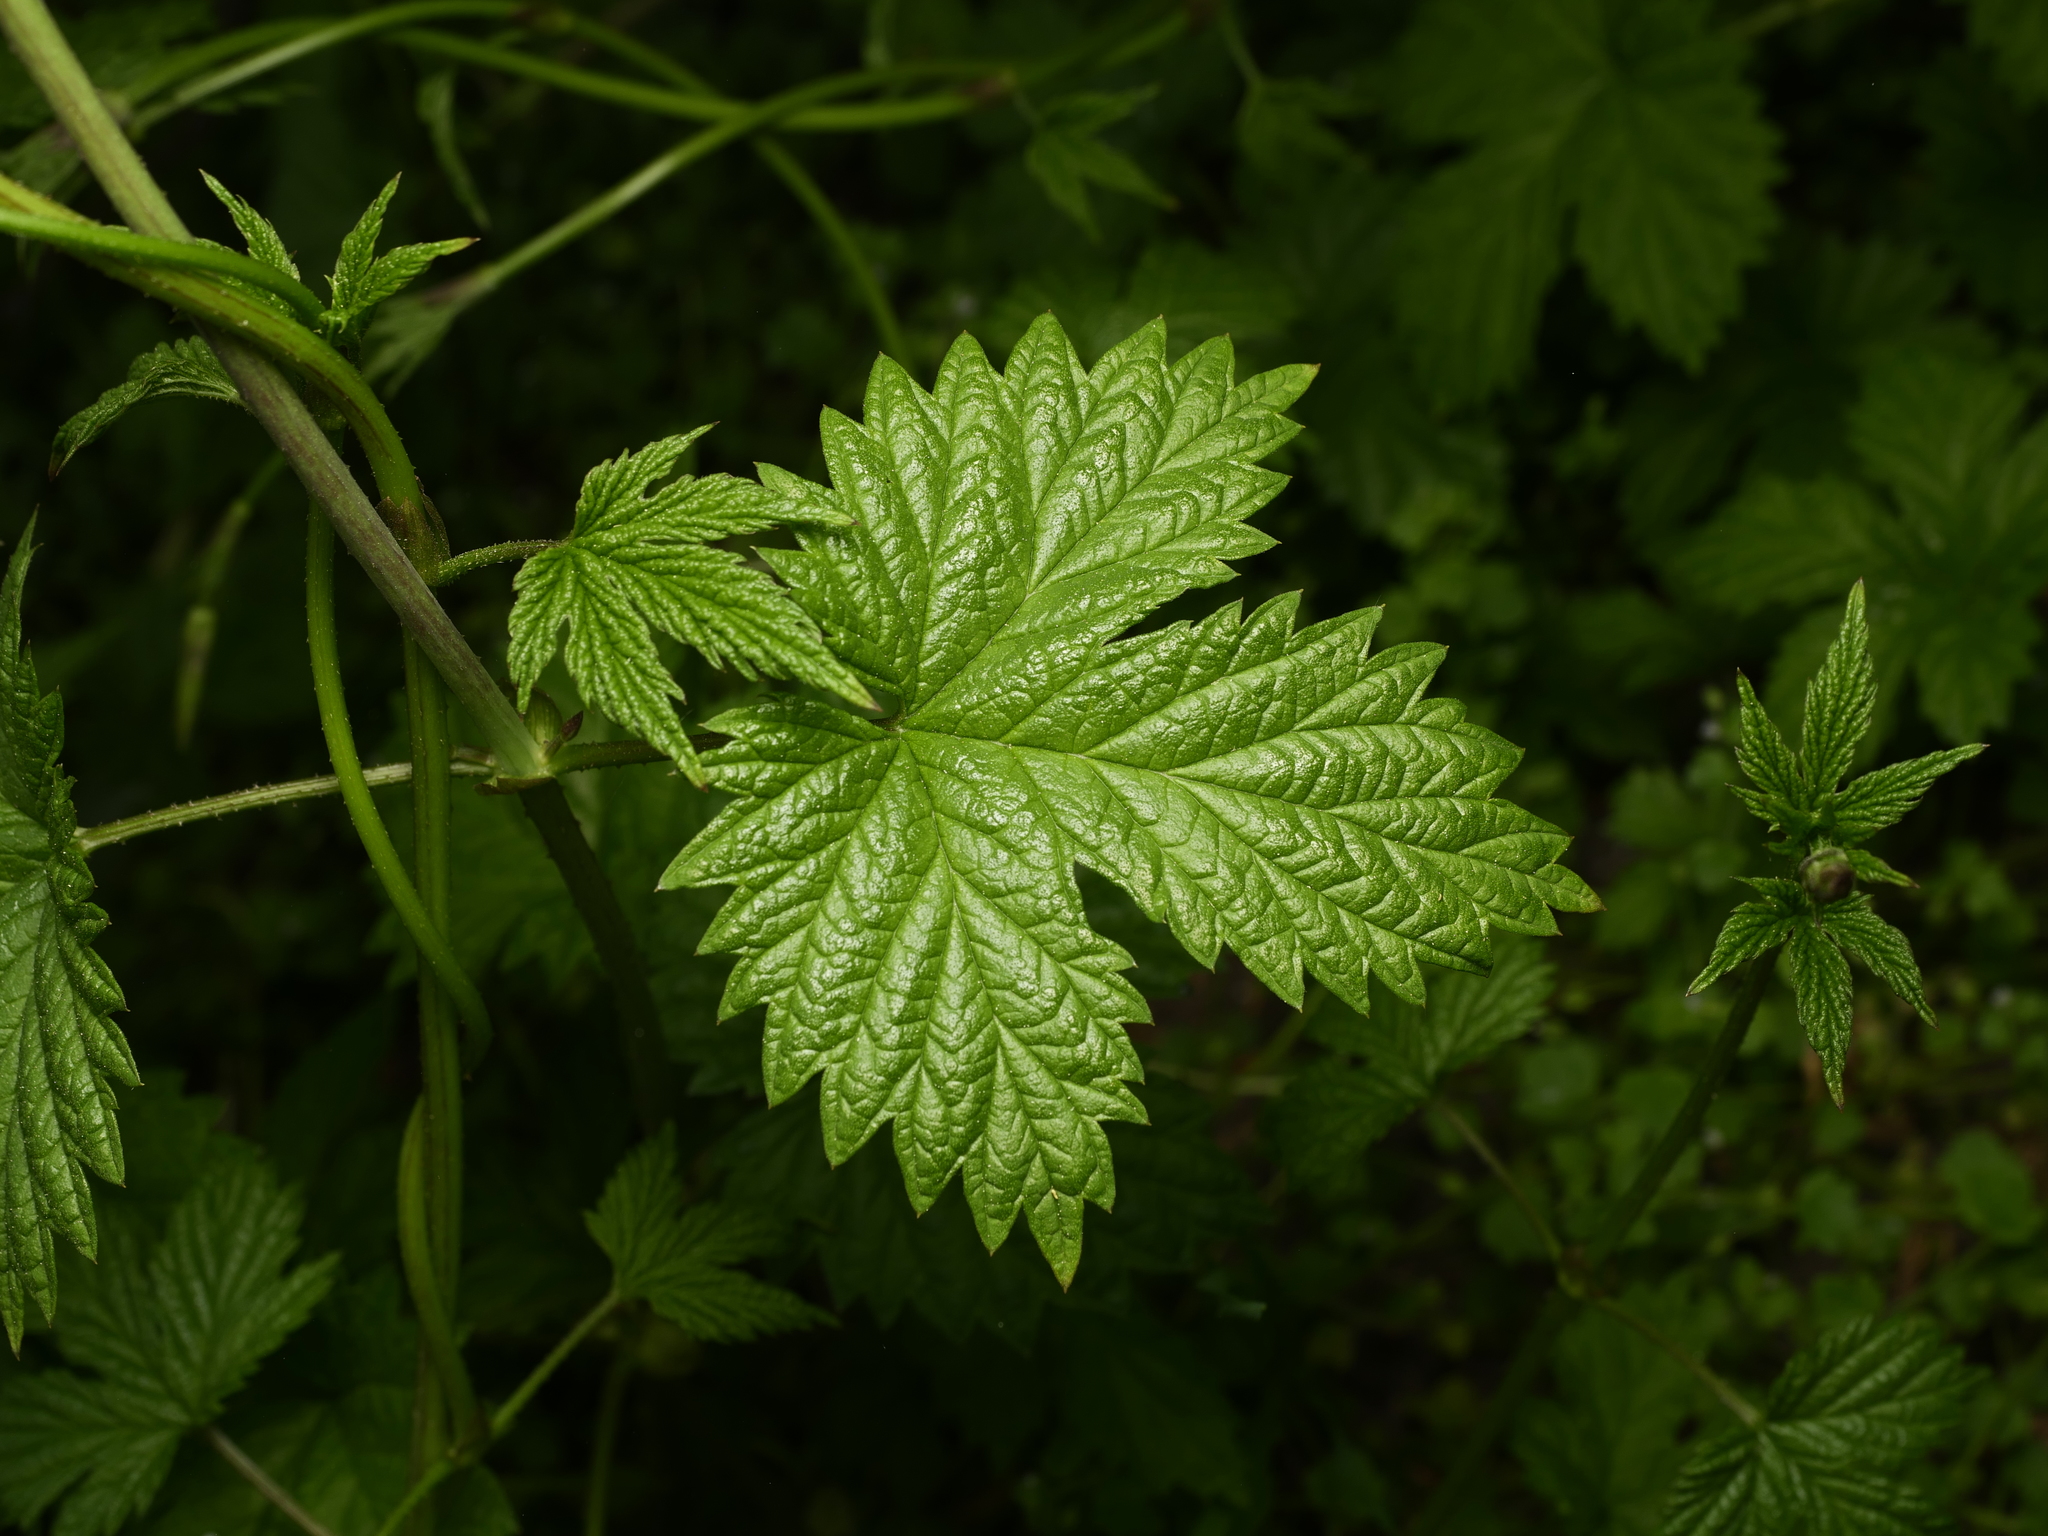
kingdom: Plantae
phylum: Tracheophyta
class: Magnoliopsida
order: Rosales
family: Cannabaceae
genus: Humulus
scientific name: Humulus lupulus
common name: Hop
